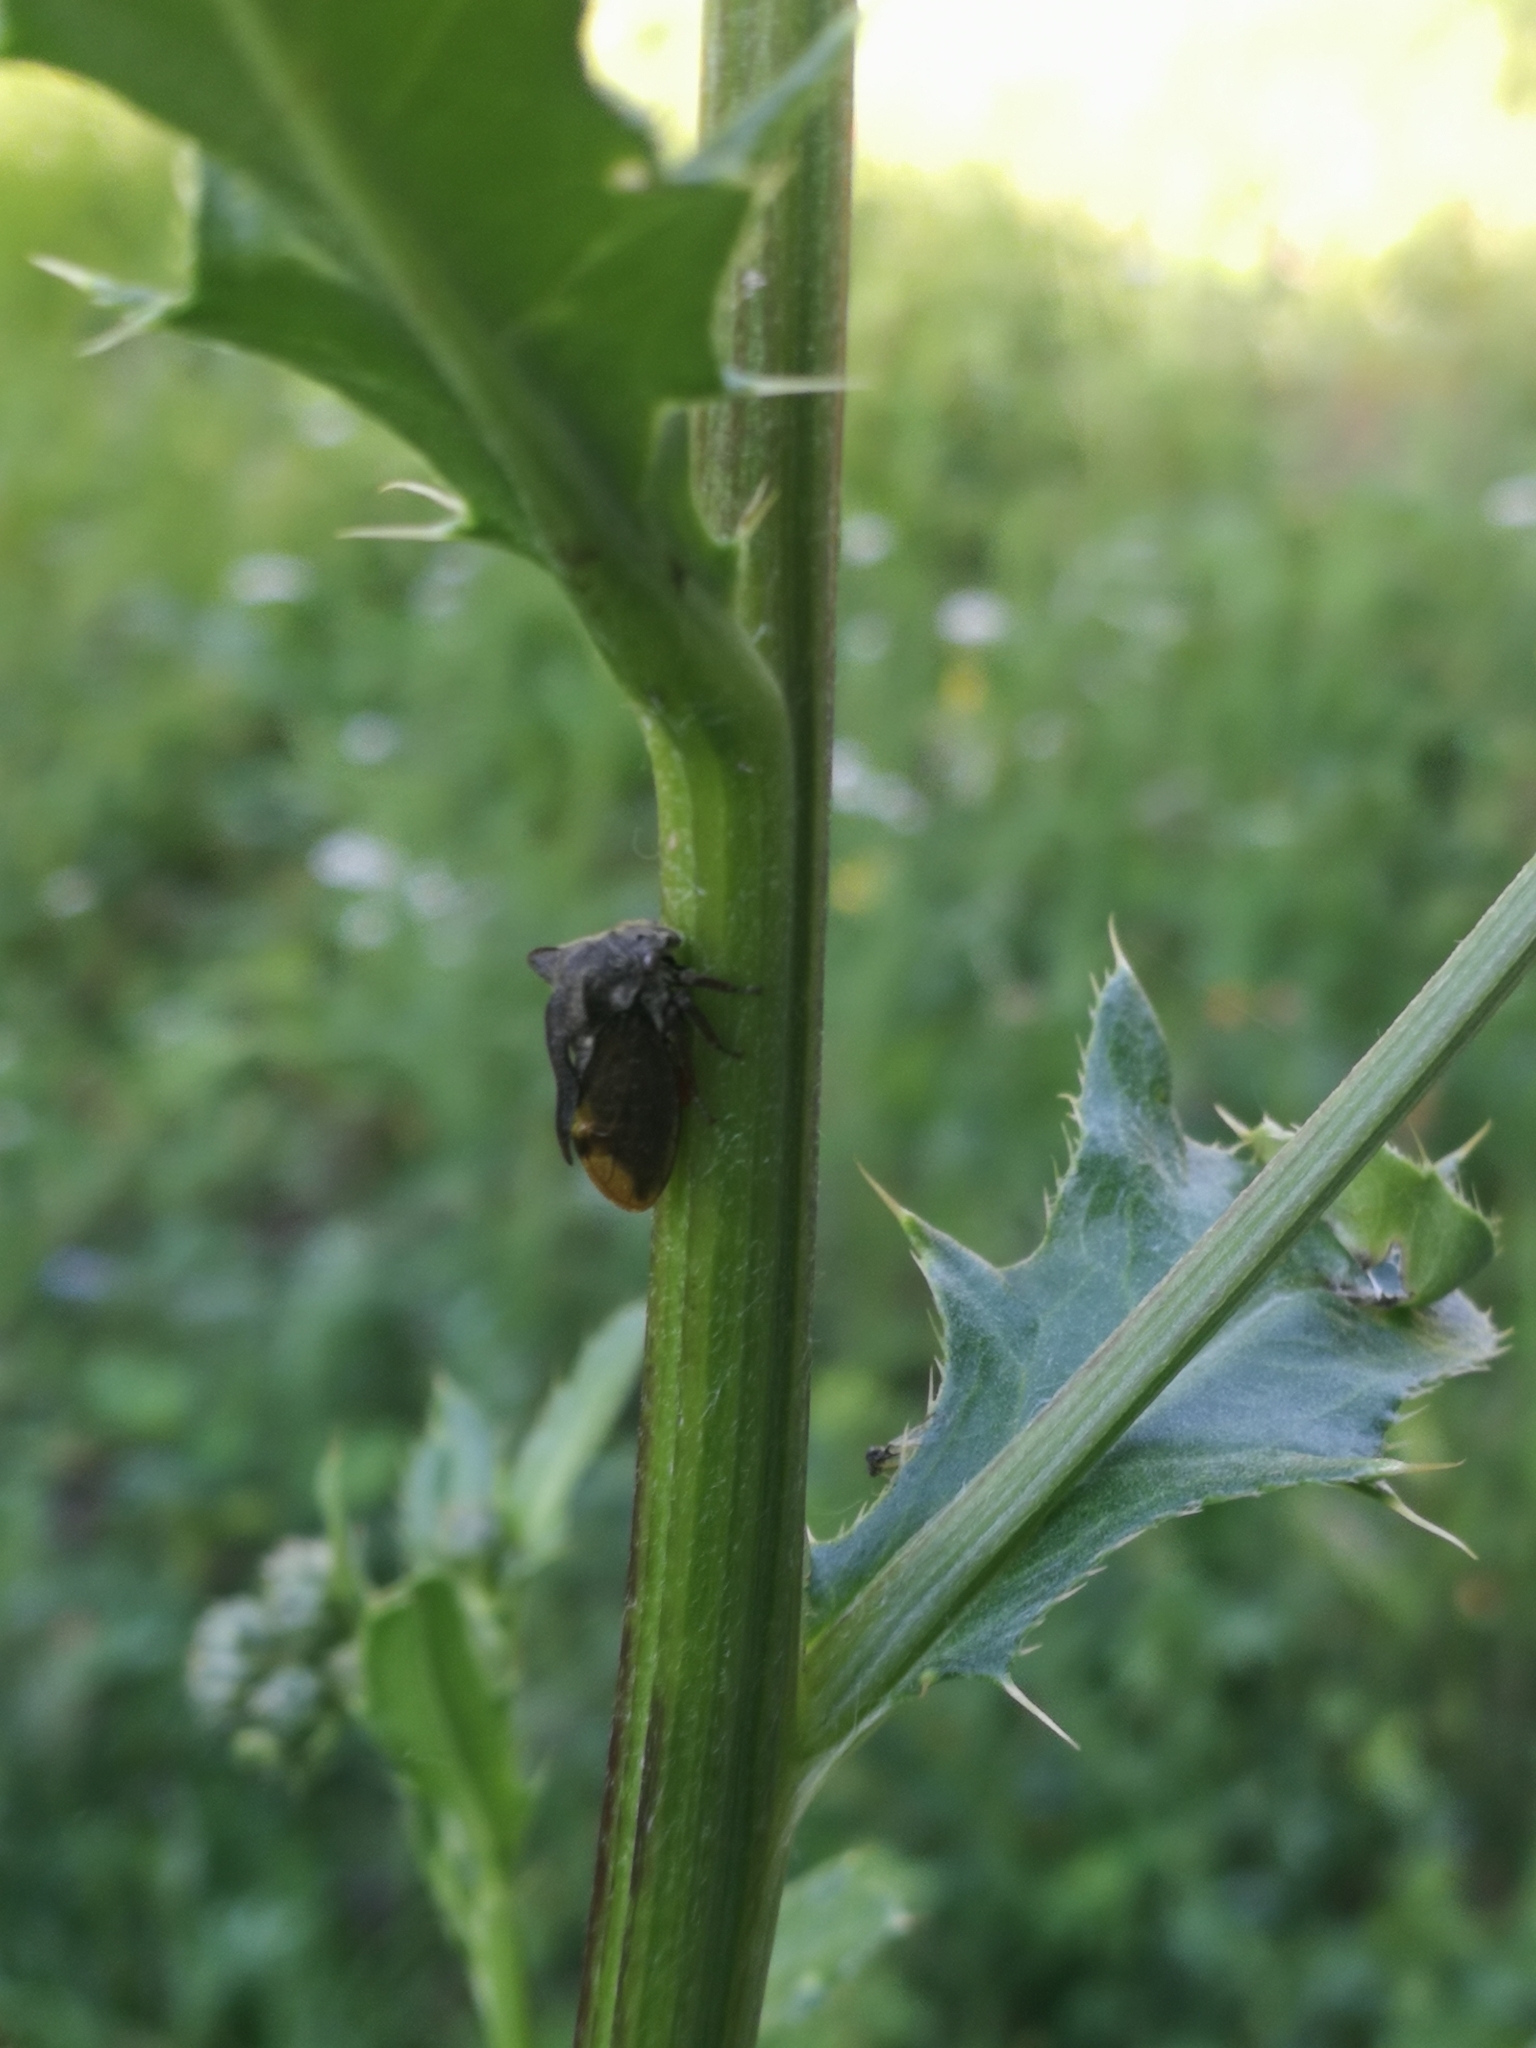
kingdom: Animalia
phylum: Arthropoda
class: Insecta
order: Hemiptera
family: Membracidae
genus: Centrotus
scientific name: Centrotus cornuta
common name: Treehopper
